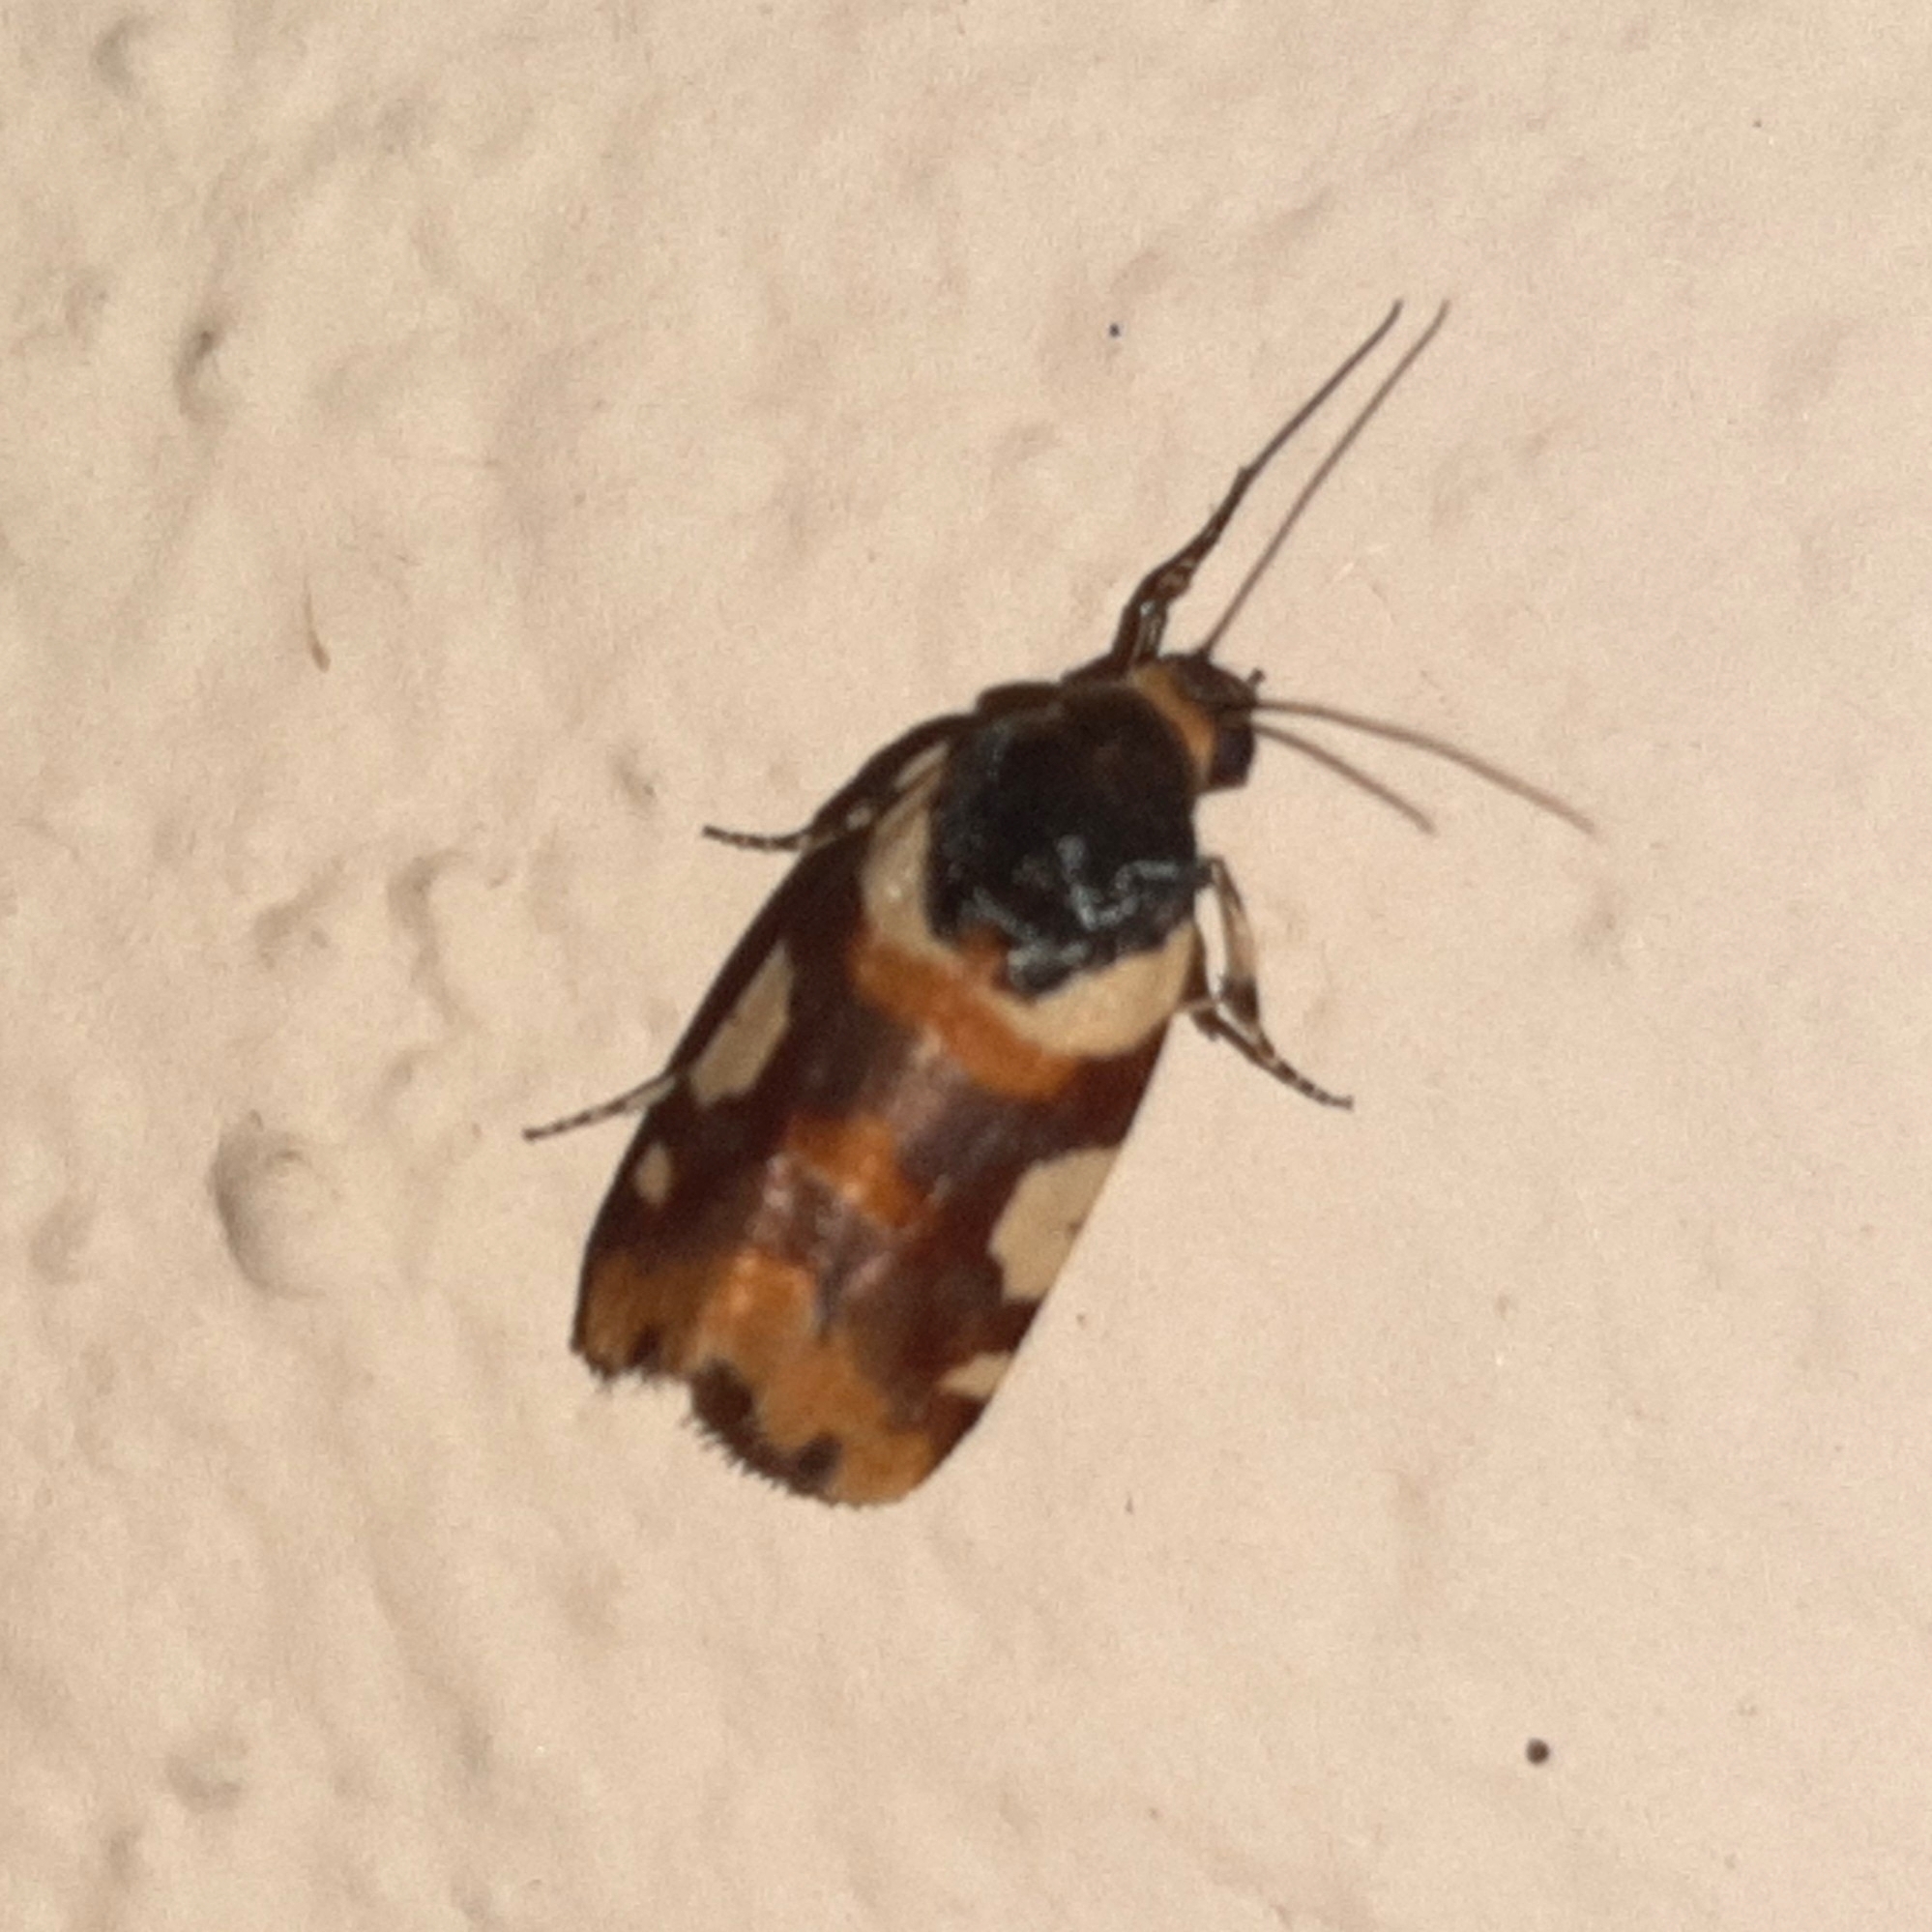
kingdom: Animalia
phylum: Arthropoda
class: Insecta
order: Lepidoptera
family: Noctuidae
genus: Acontia
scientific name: Acontia dama
